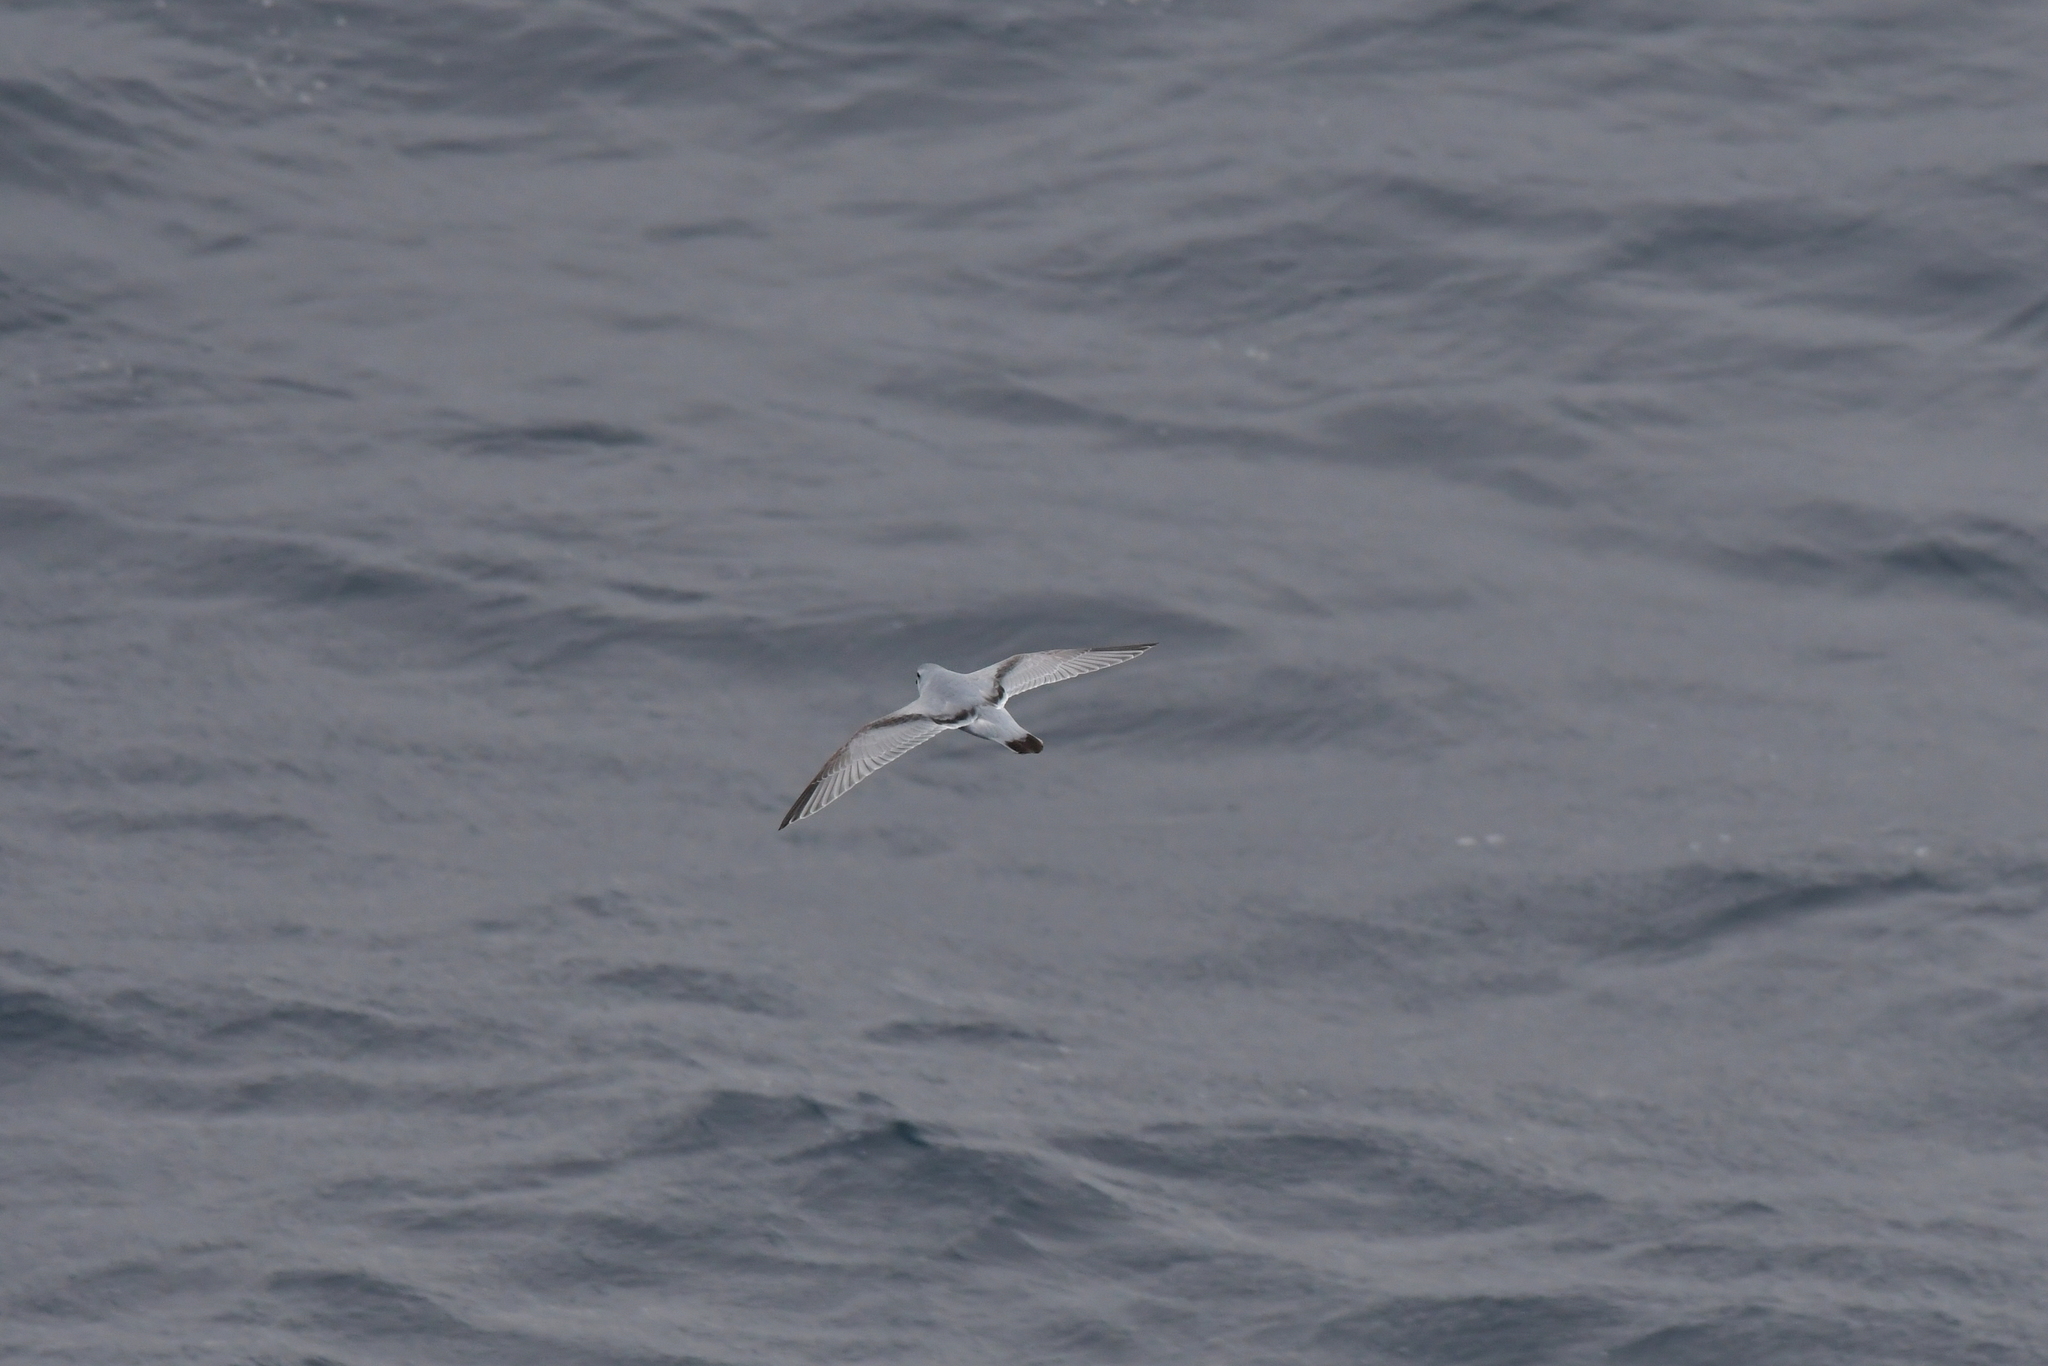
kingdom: Animalia
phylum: Chordata
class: Aves
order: Procellariiformes
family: Procellariidae
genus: Pachyptila
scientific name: Pachyptila crassirostris
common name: Fulmar prion
